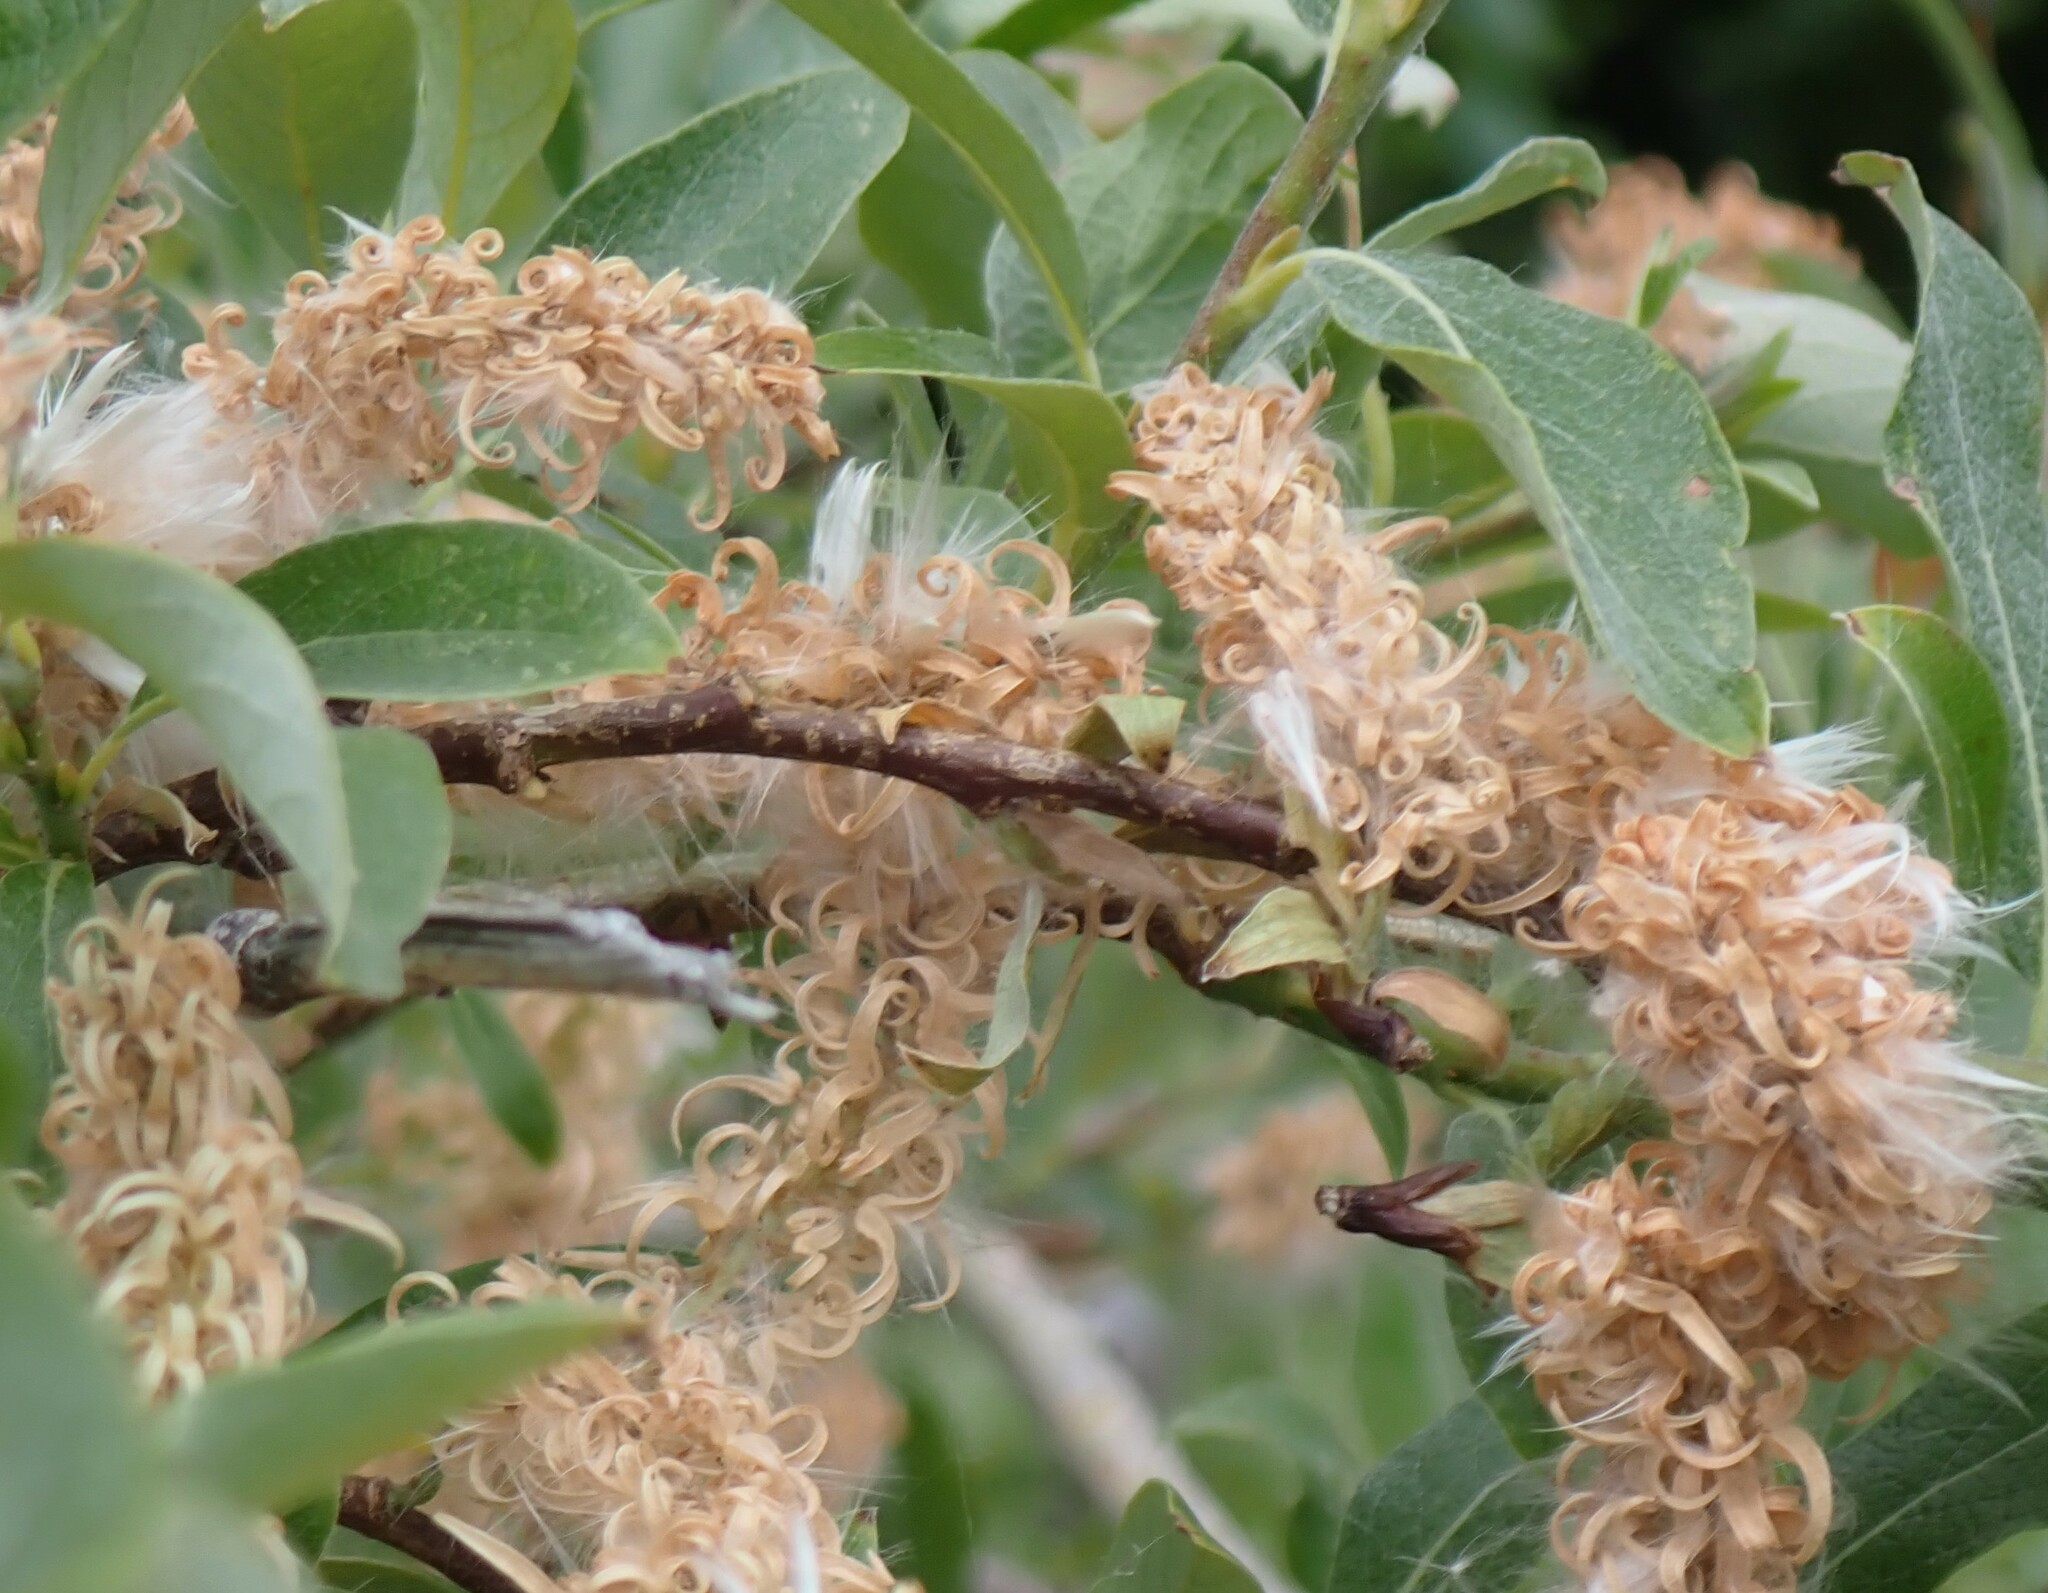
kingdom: Plantae
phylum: Tracheophyta
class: Magnoliopsida
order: Malpighiales
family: Salicaceae
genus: Salix
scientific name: Salix bebbiana
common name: Bebb's willow
